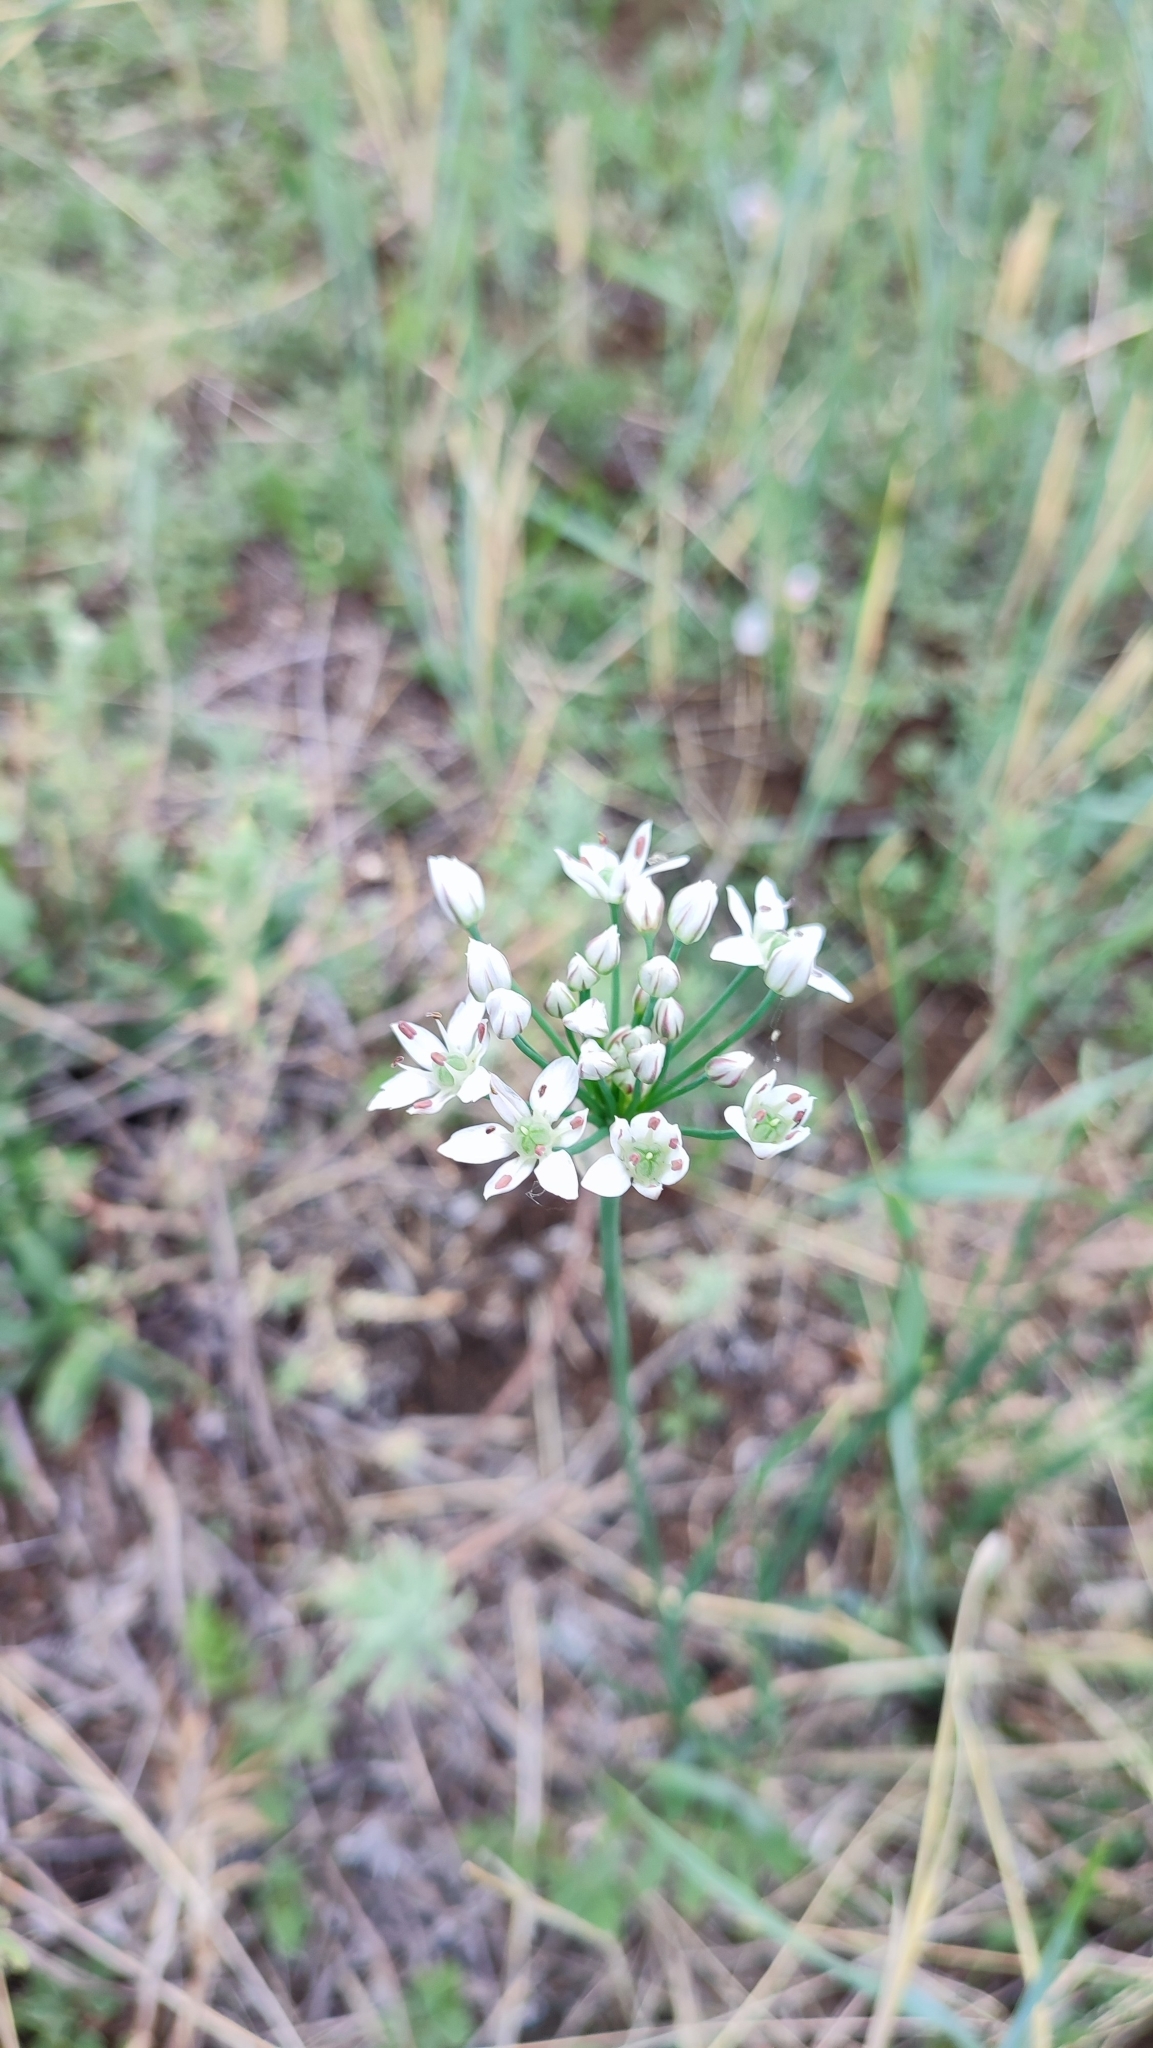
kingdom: Plantae
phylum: Tracheophyta
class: Liliopsida
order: Asparagales
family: Amaryllidaceae
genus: Allium
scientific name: Allium ramosum
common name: Fragrant garlic
